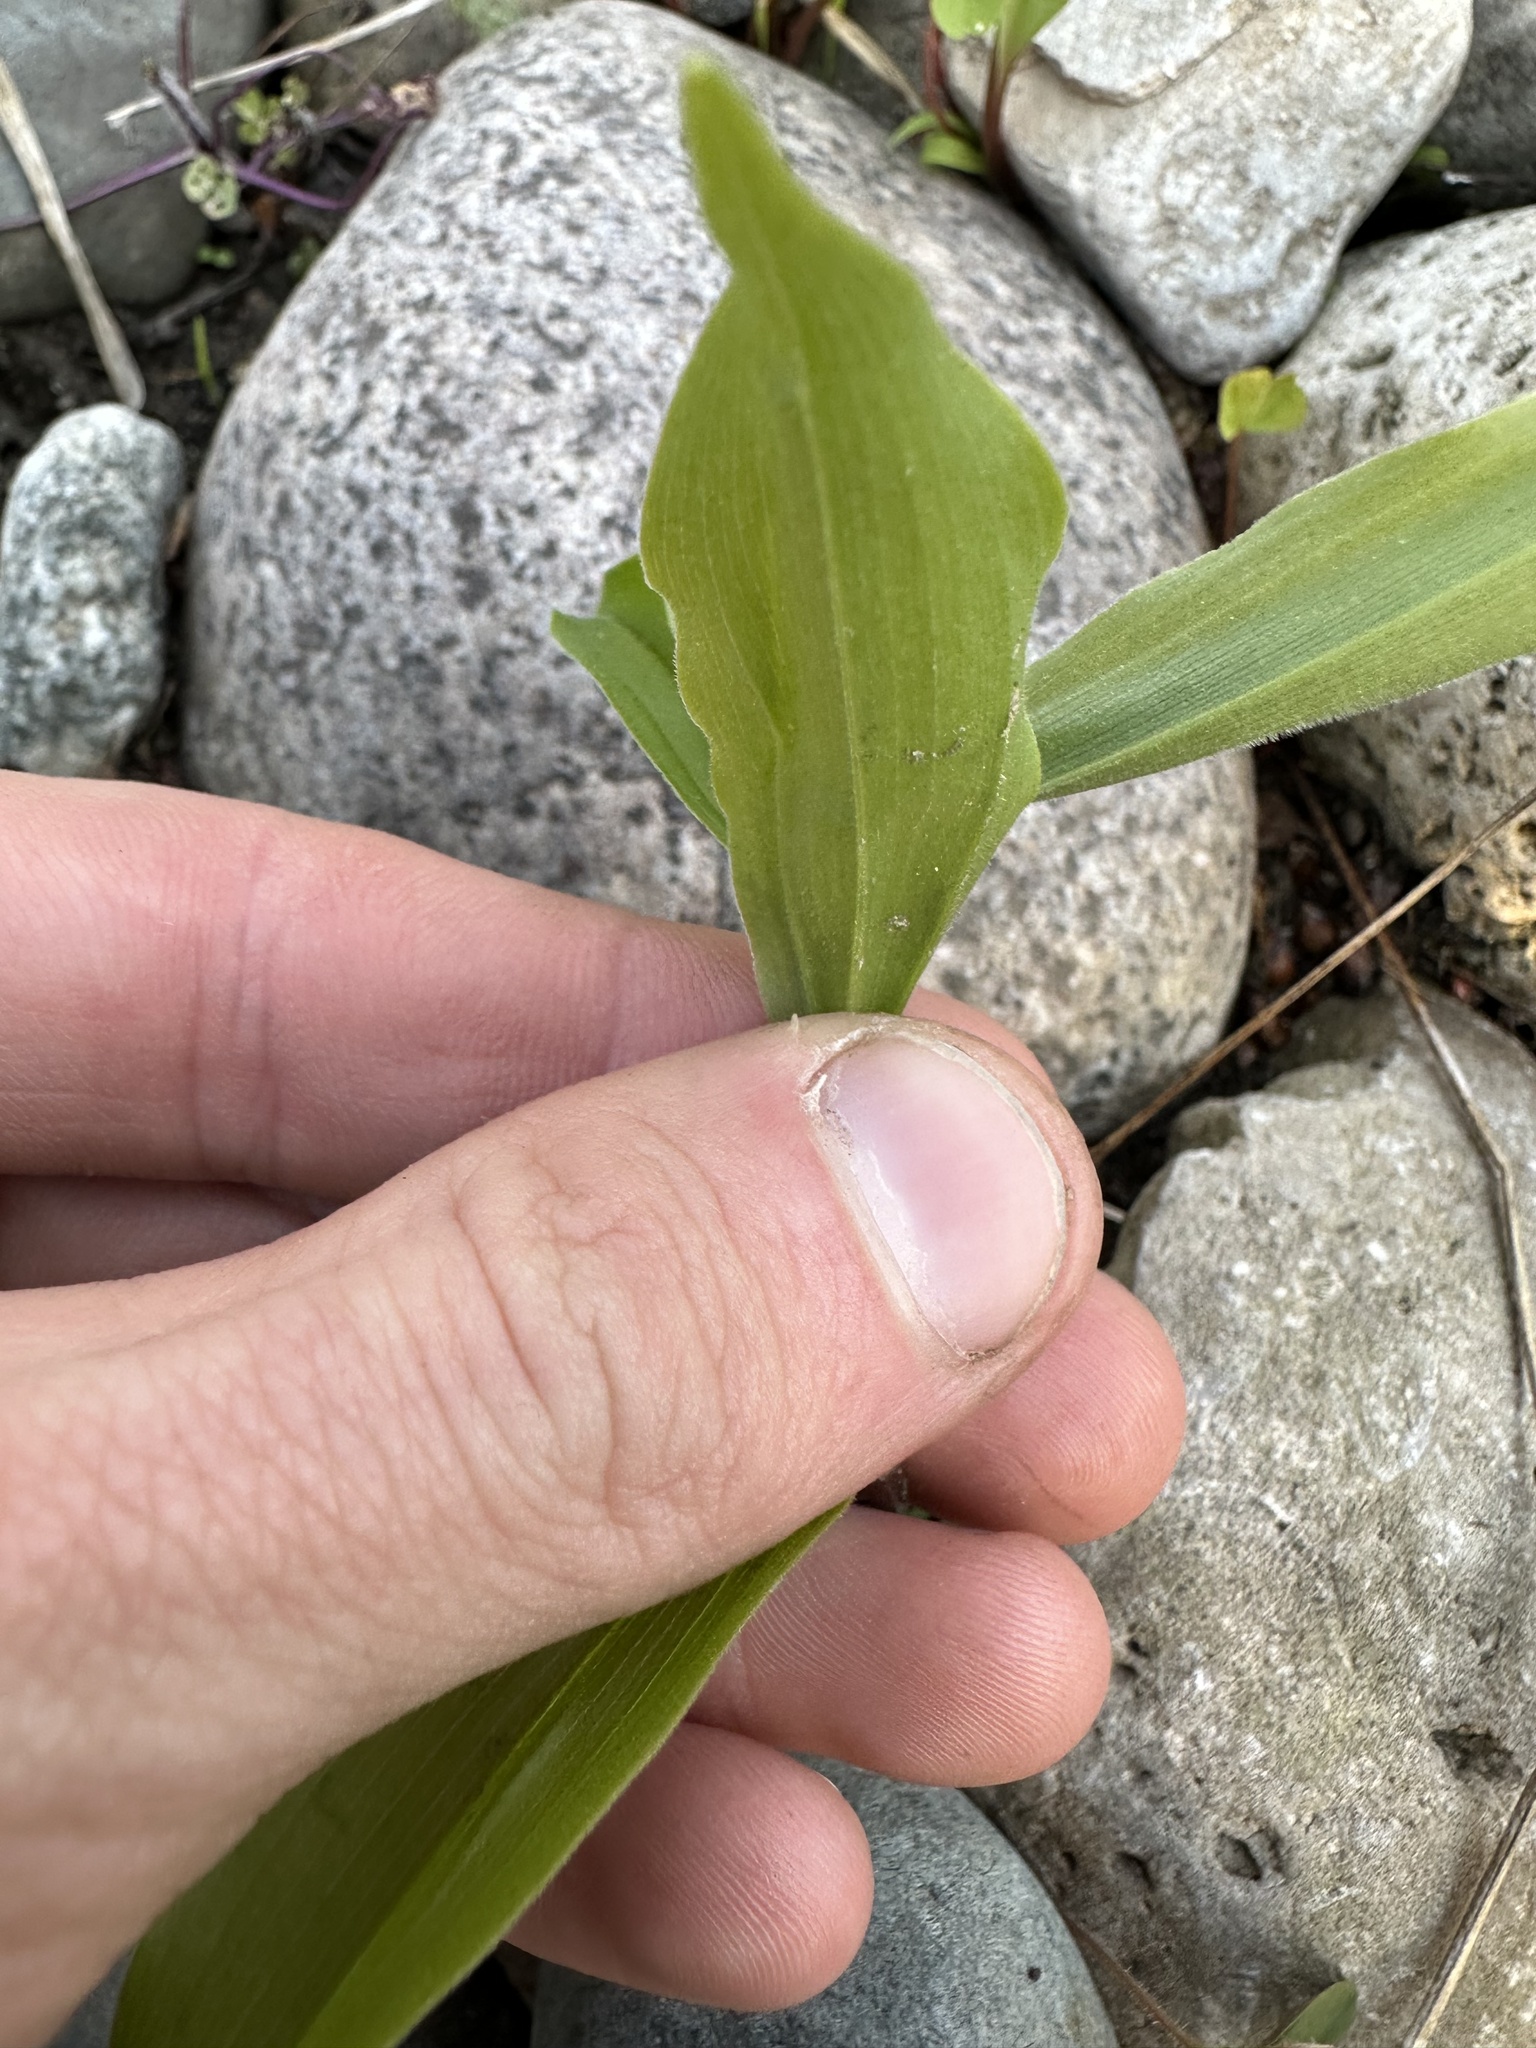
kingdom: Plantae
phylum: Tracheophyta
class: Liliopsida
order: Asparagales
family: Asparagaceae
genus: Maianthemum
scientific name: Maianthemum racemosum
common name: False spikenard
